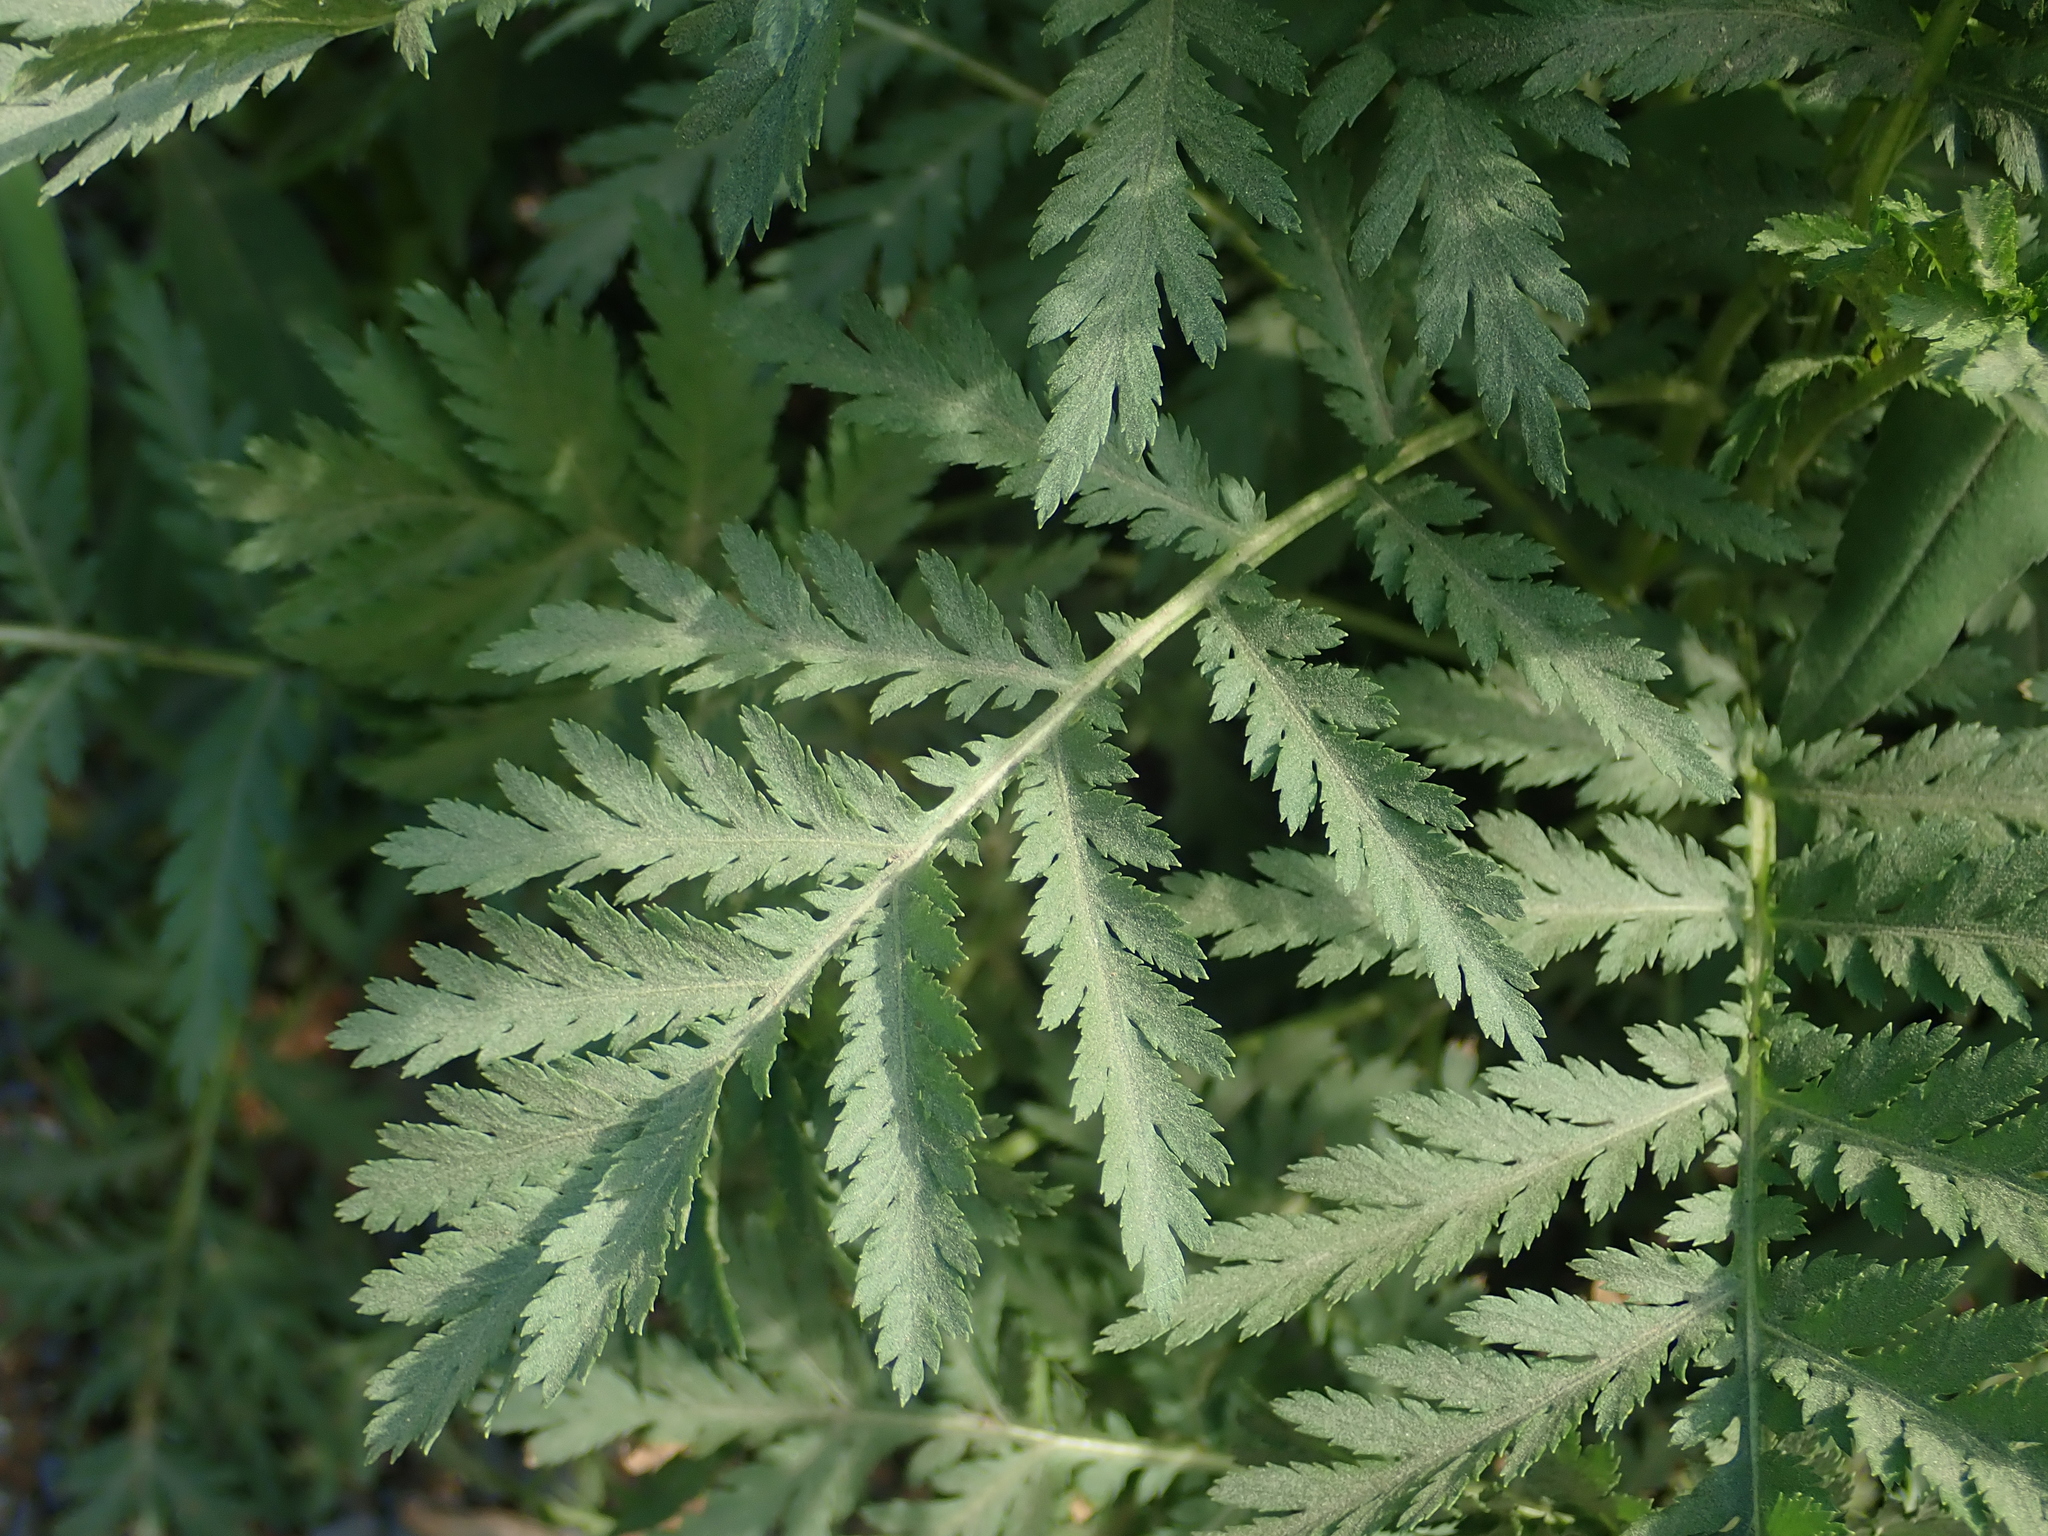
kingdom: Plantae
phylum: Tracheophyta
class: Magnoliopsida
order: Asterales
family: Asteraceae
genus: Tanacetum
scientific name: Tanacetum vulgare
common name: Common tansy
